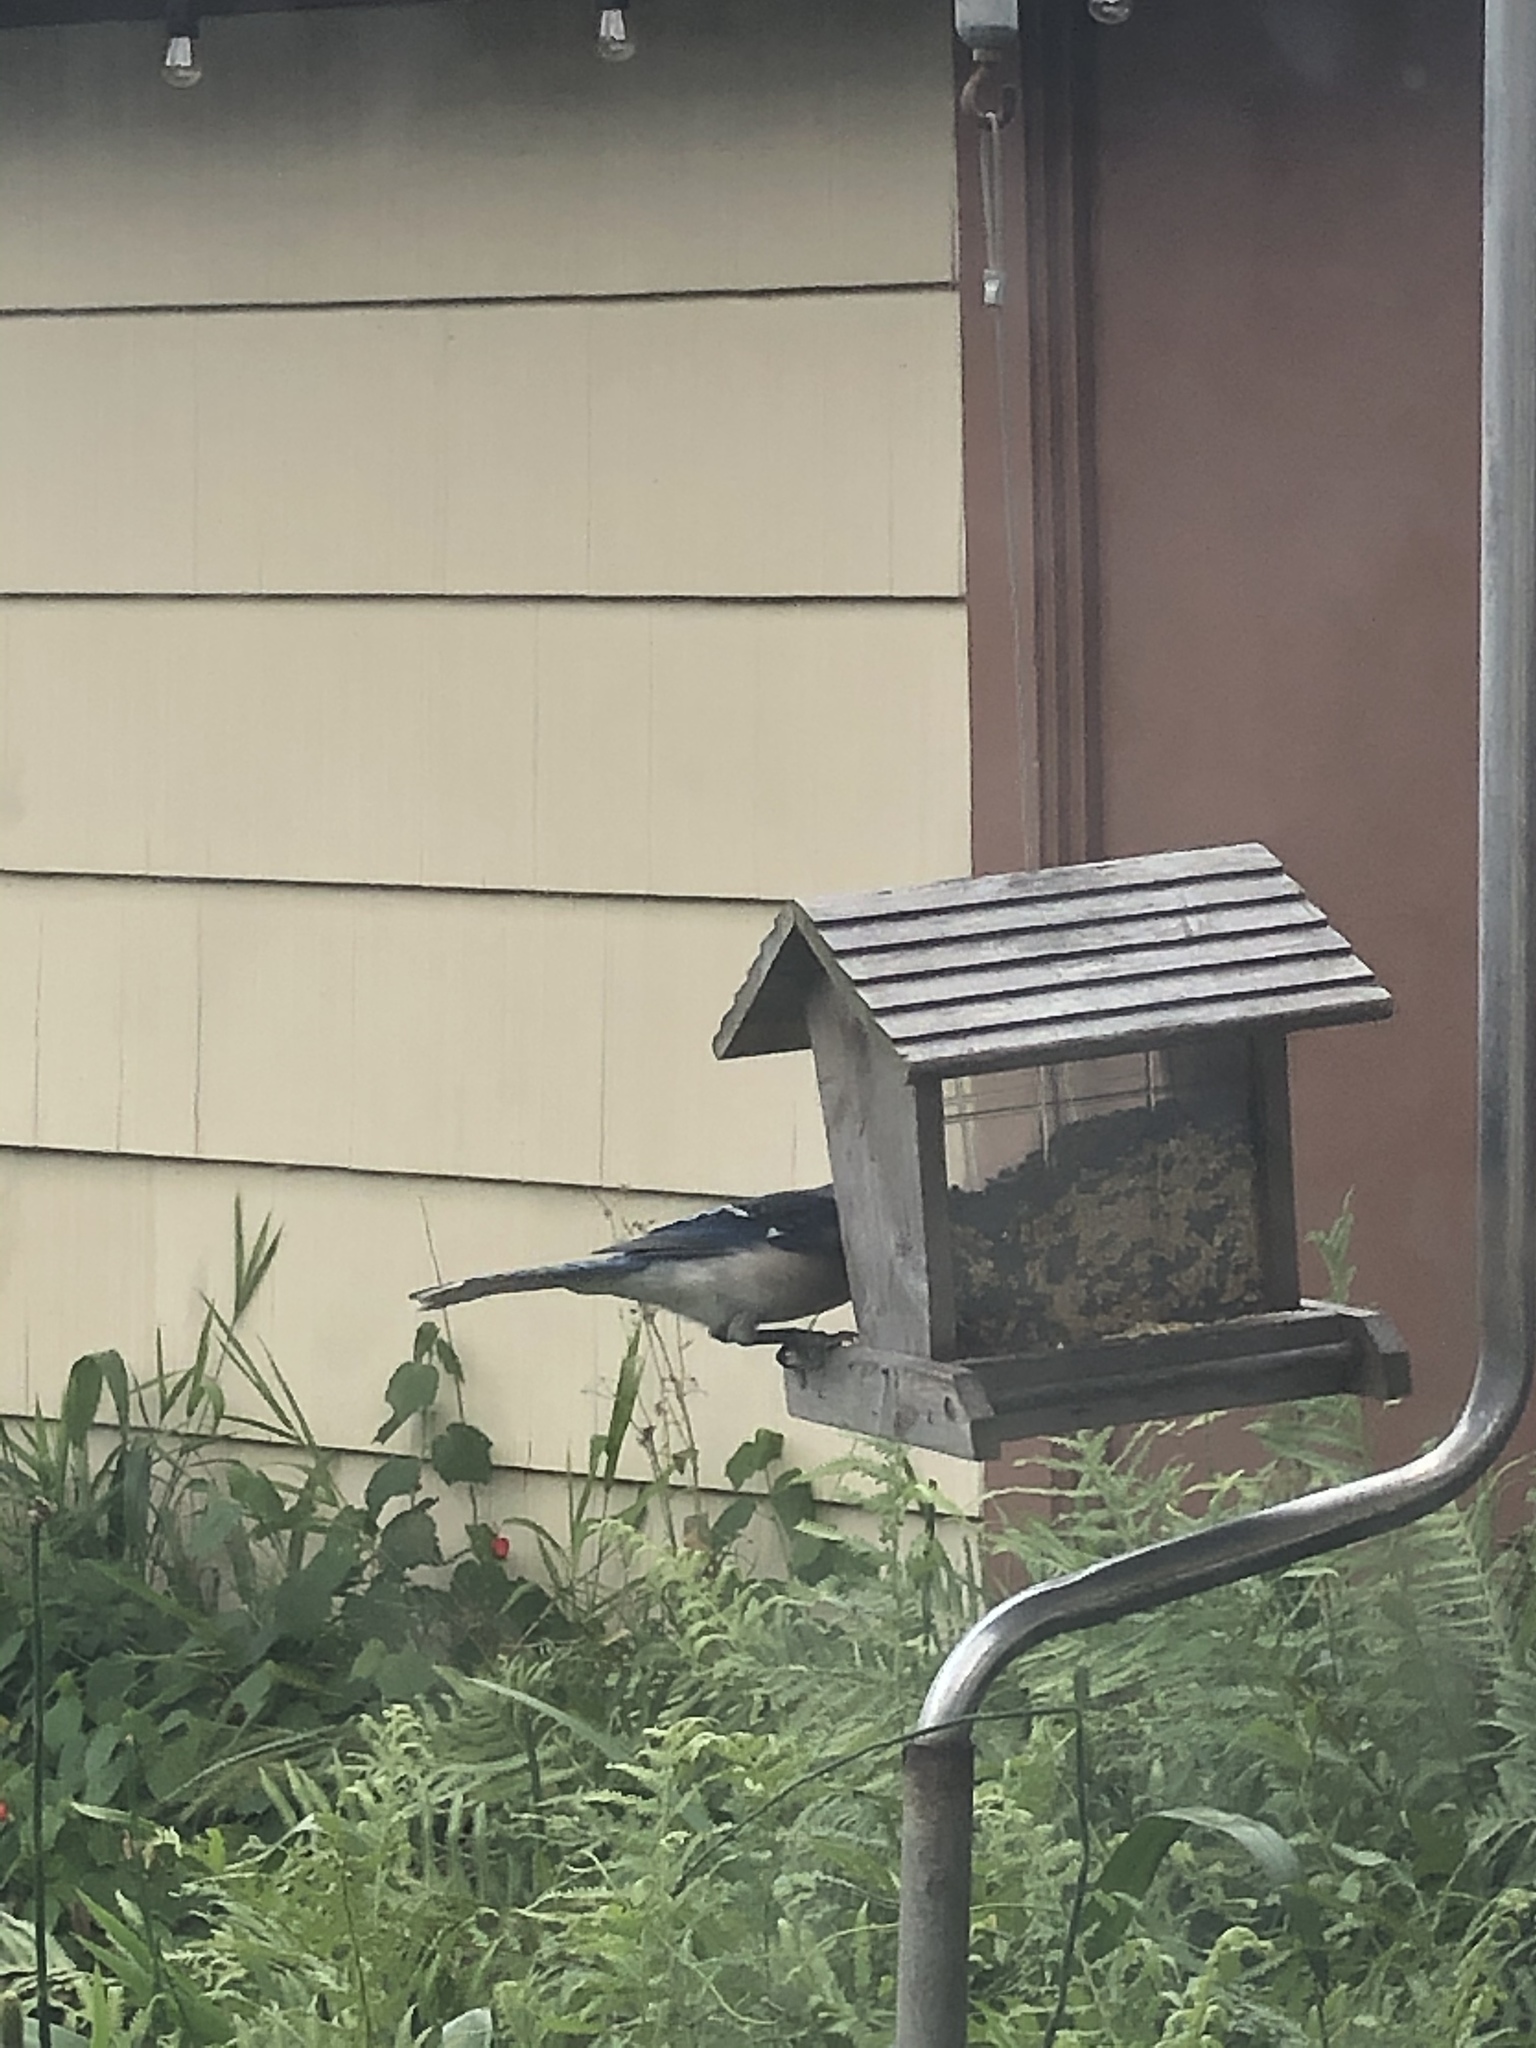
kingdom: Animalia
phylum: Chordata
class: Aves
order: Passeriformes
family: Corvidae
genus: Cyanocitta
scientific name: Cyanocitta cristata
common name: Blue jay
